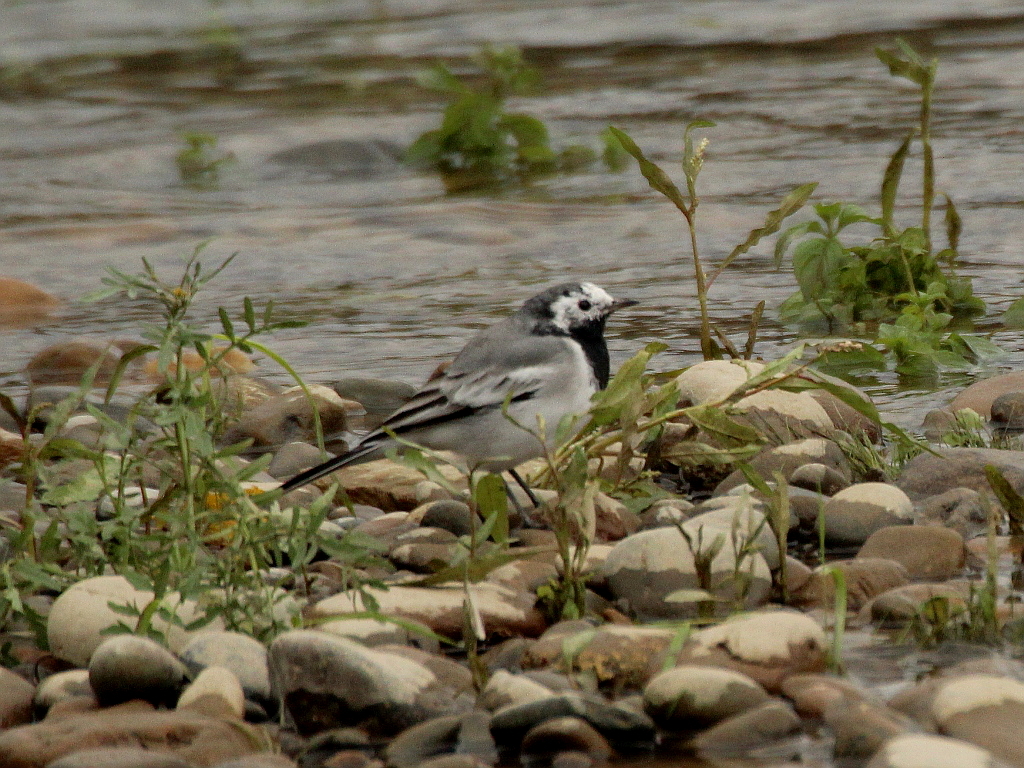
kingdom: Animalia
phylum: Chordata
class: Aves
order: Passeriformes
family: Motacillidae
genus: Motacilla
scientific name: Motacilla alba
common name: White wagtail
